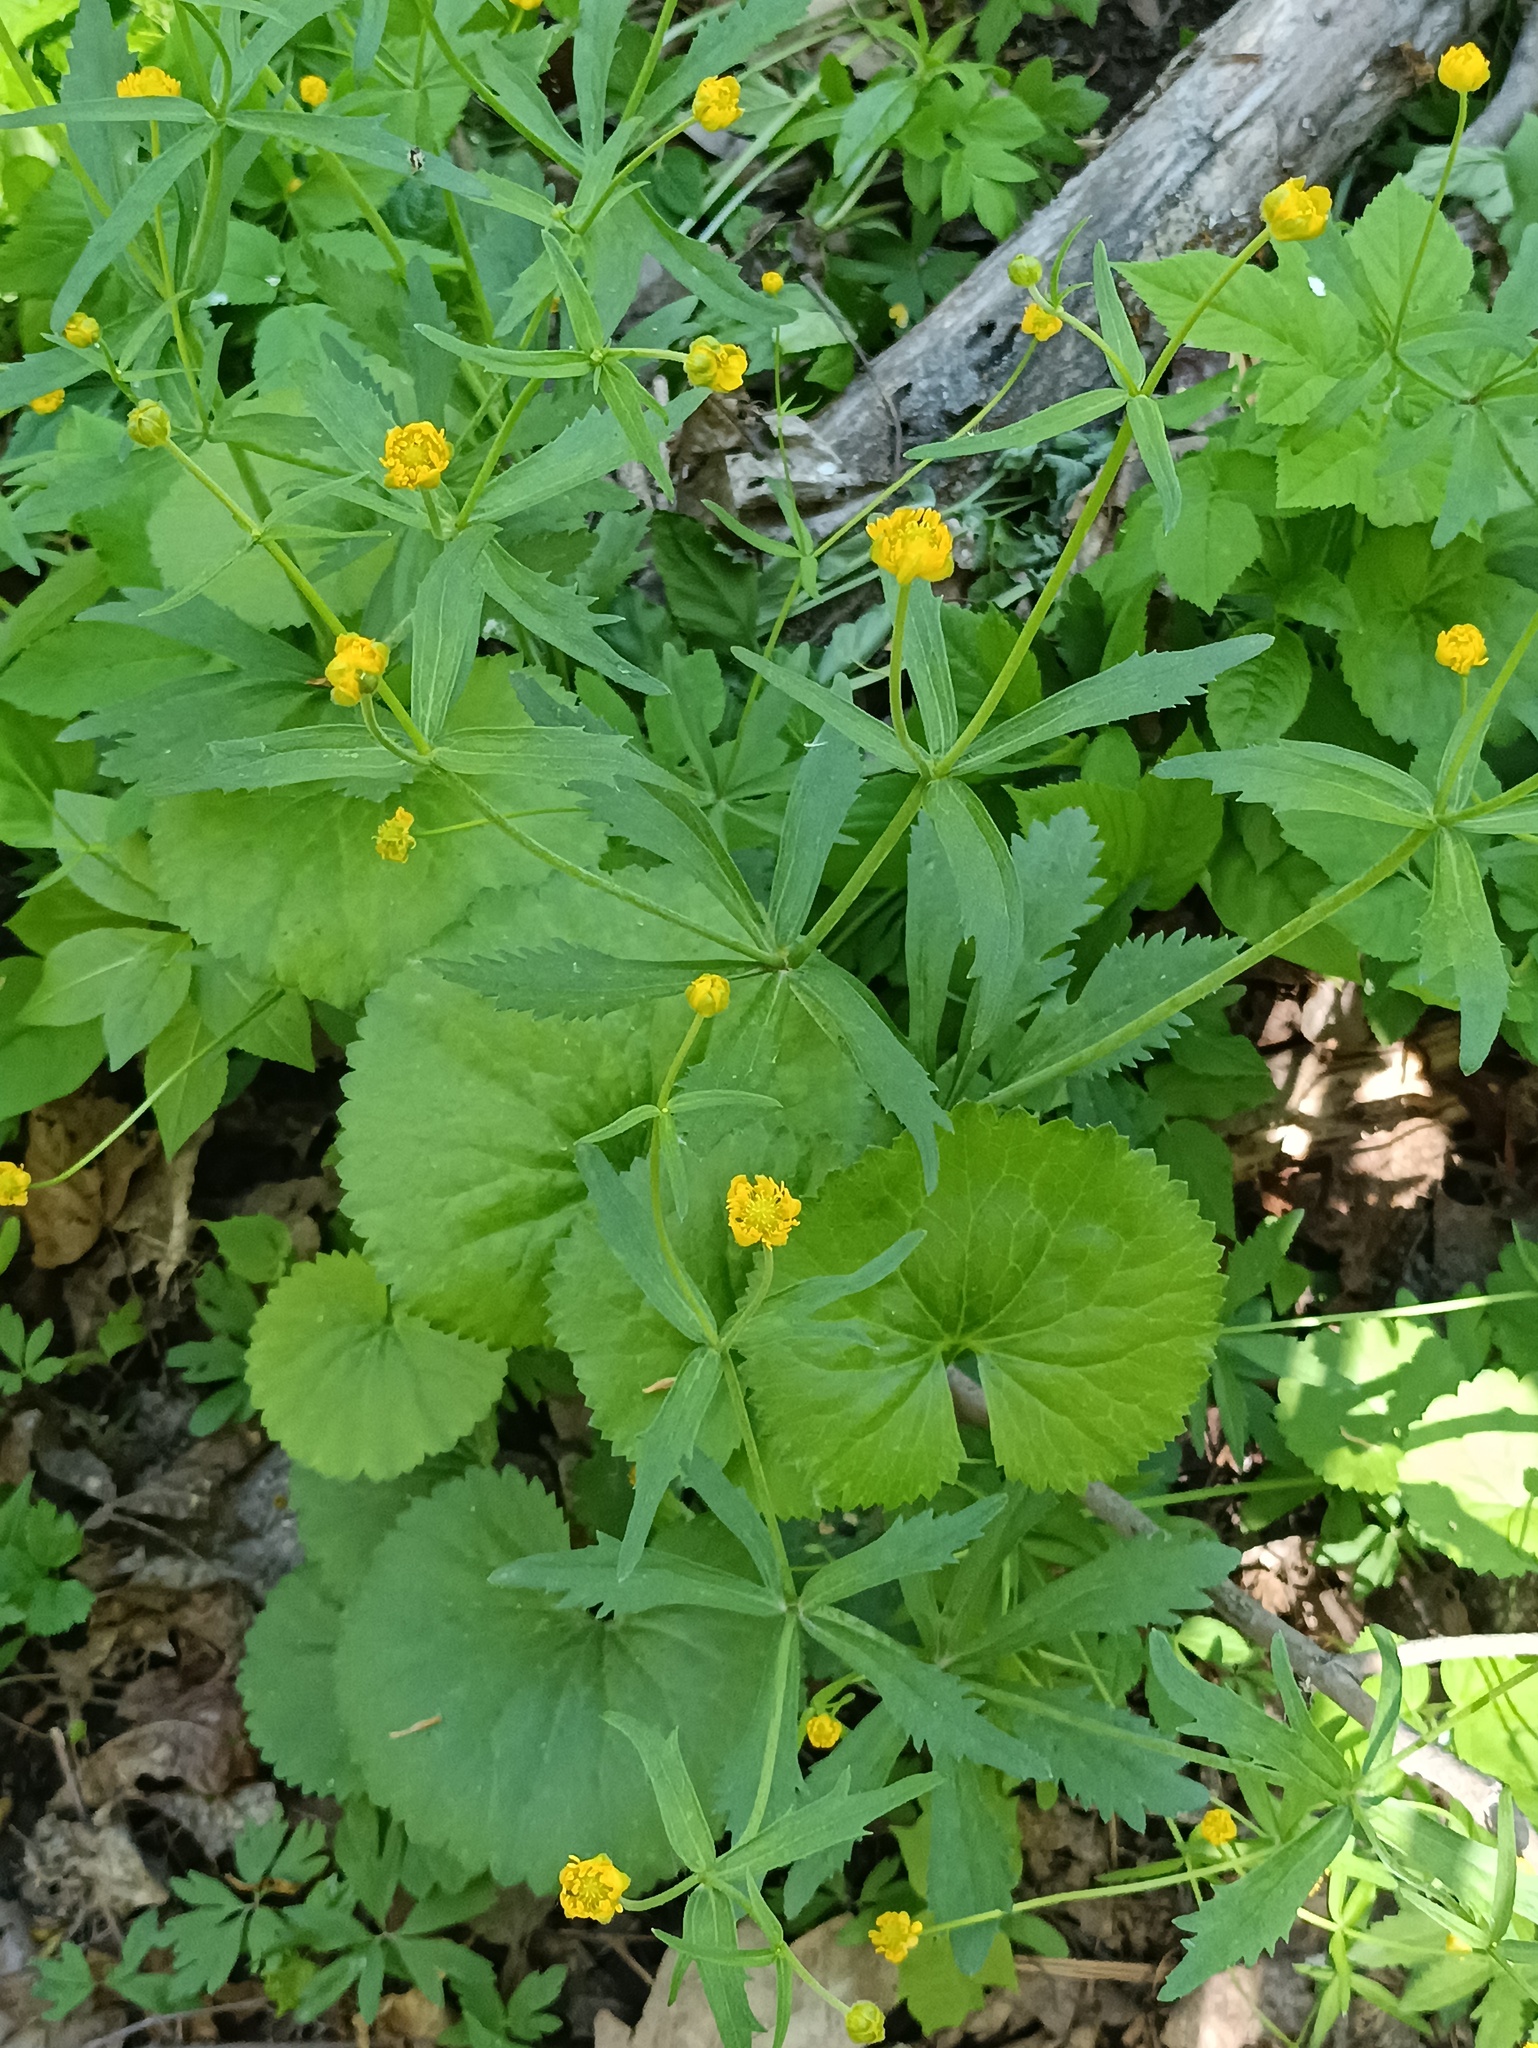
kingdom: Plantae
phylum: Tracheophyta
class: Magnoliopsida
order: Ranunculales
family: Ranunculaceae
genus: Ranunculus
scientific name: Ranunculus cassubicus
